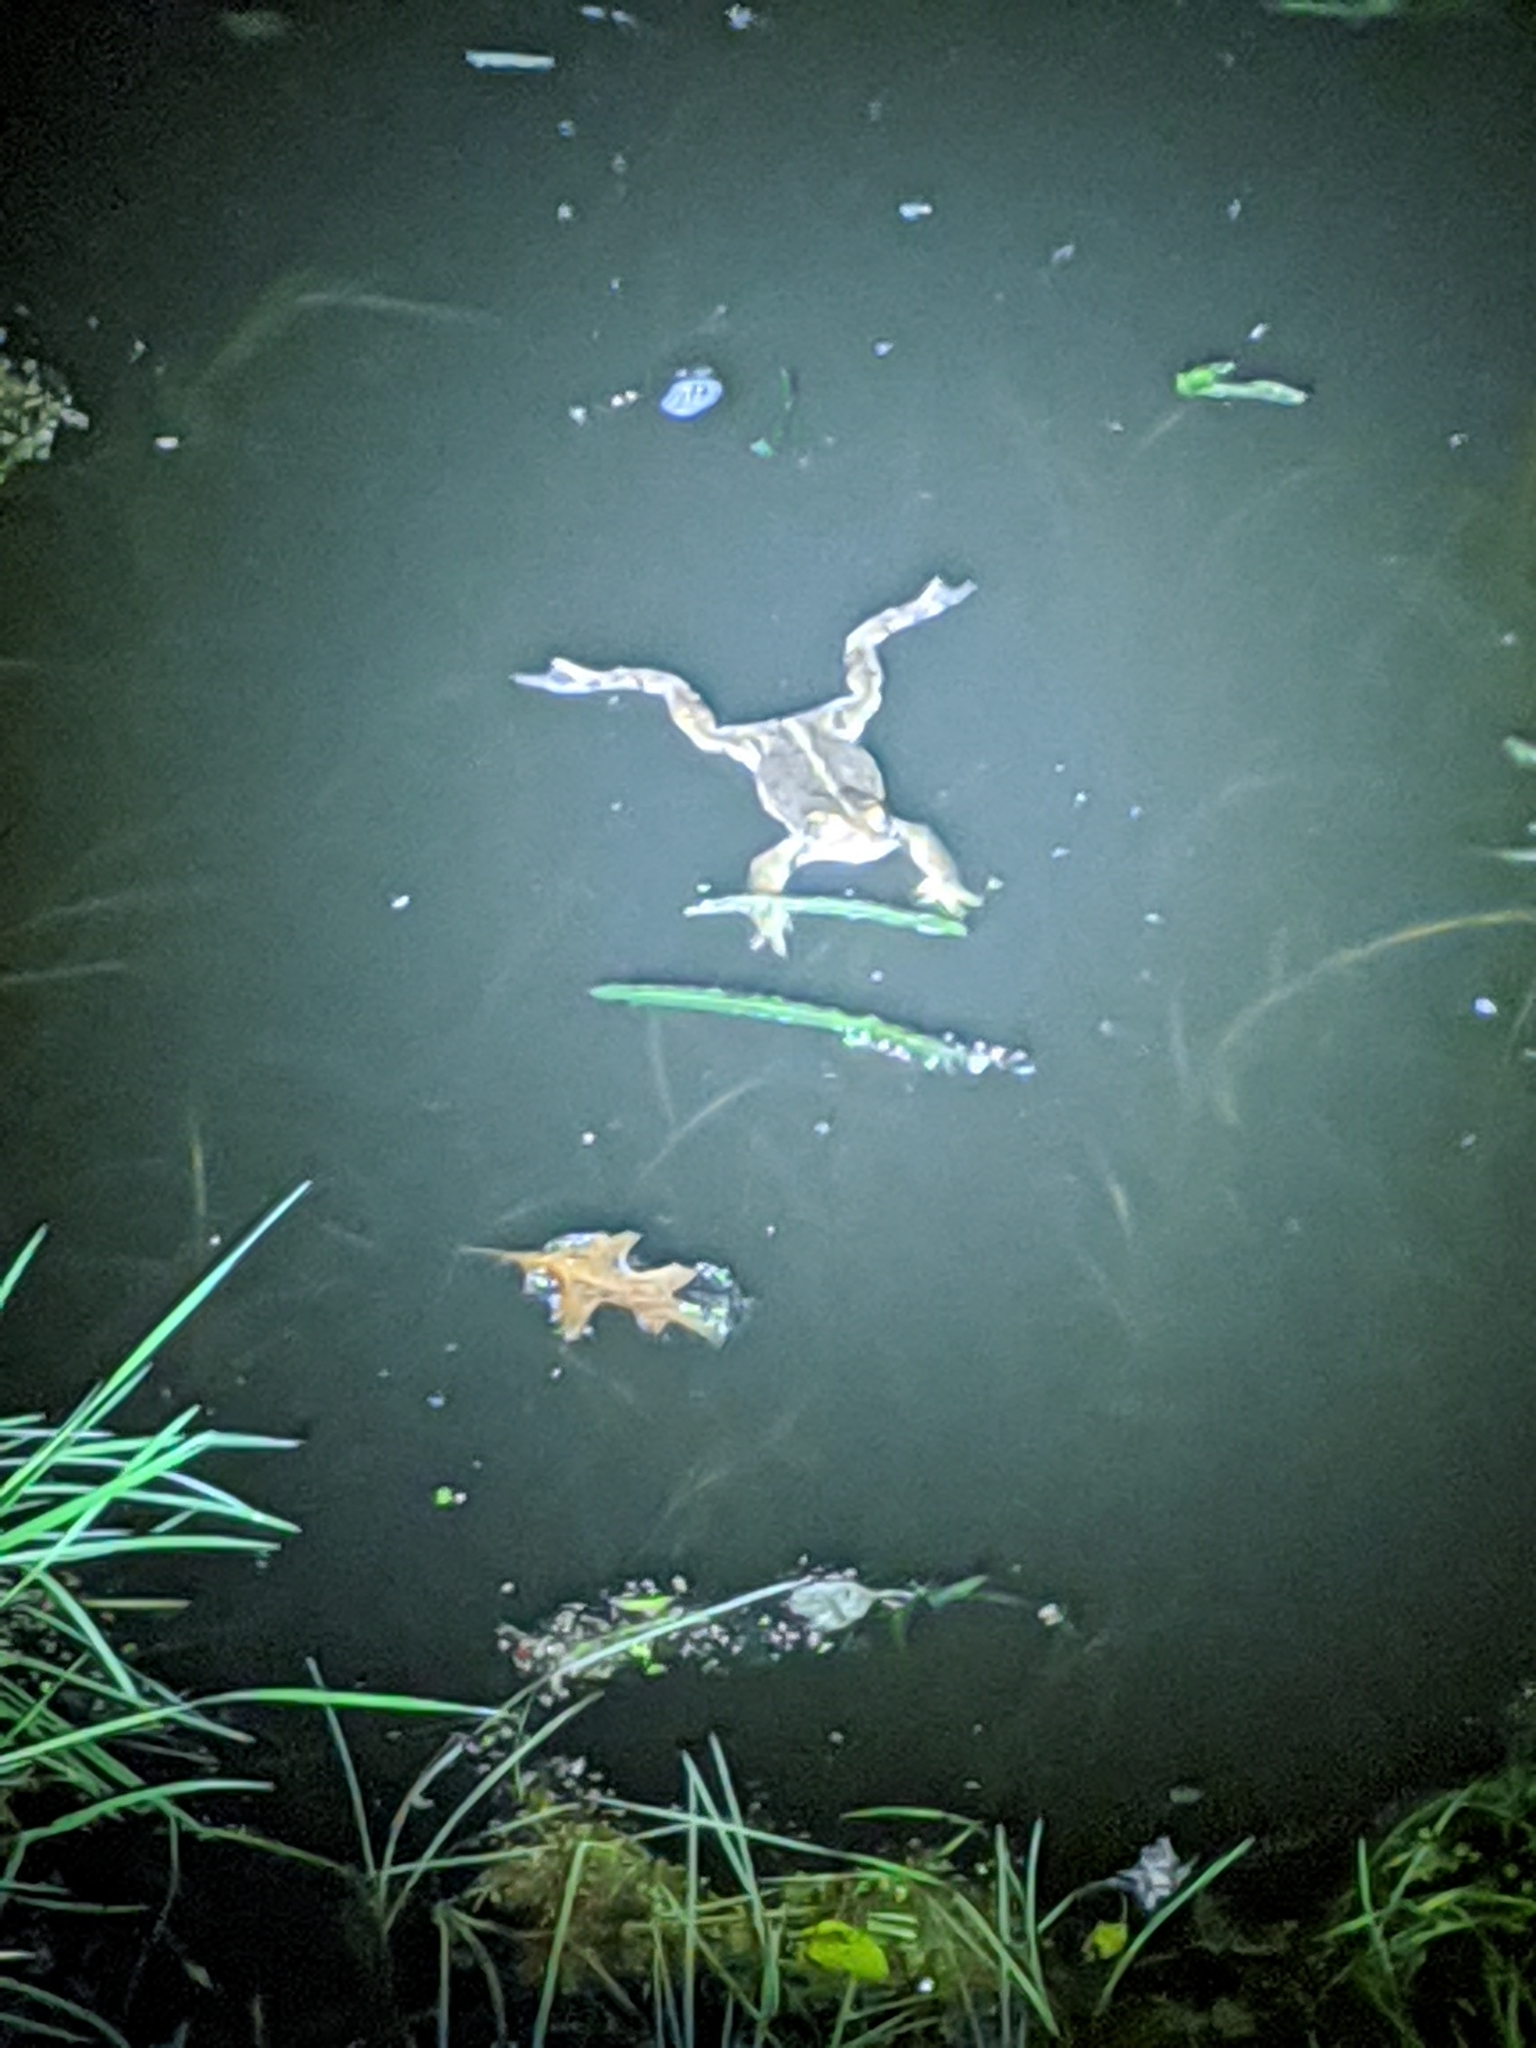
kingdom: Animalia
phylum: Chordata
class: Amphibia
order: Anura
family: Bufonidae
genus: Anaxyrus
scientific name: Anaxyrus boreas
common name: Western toad
